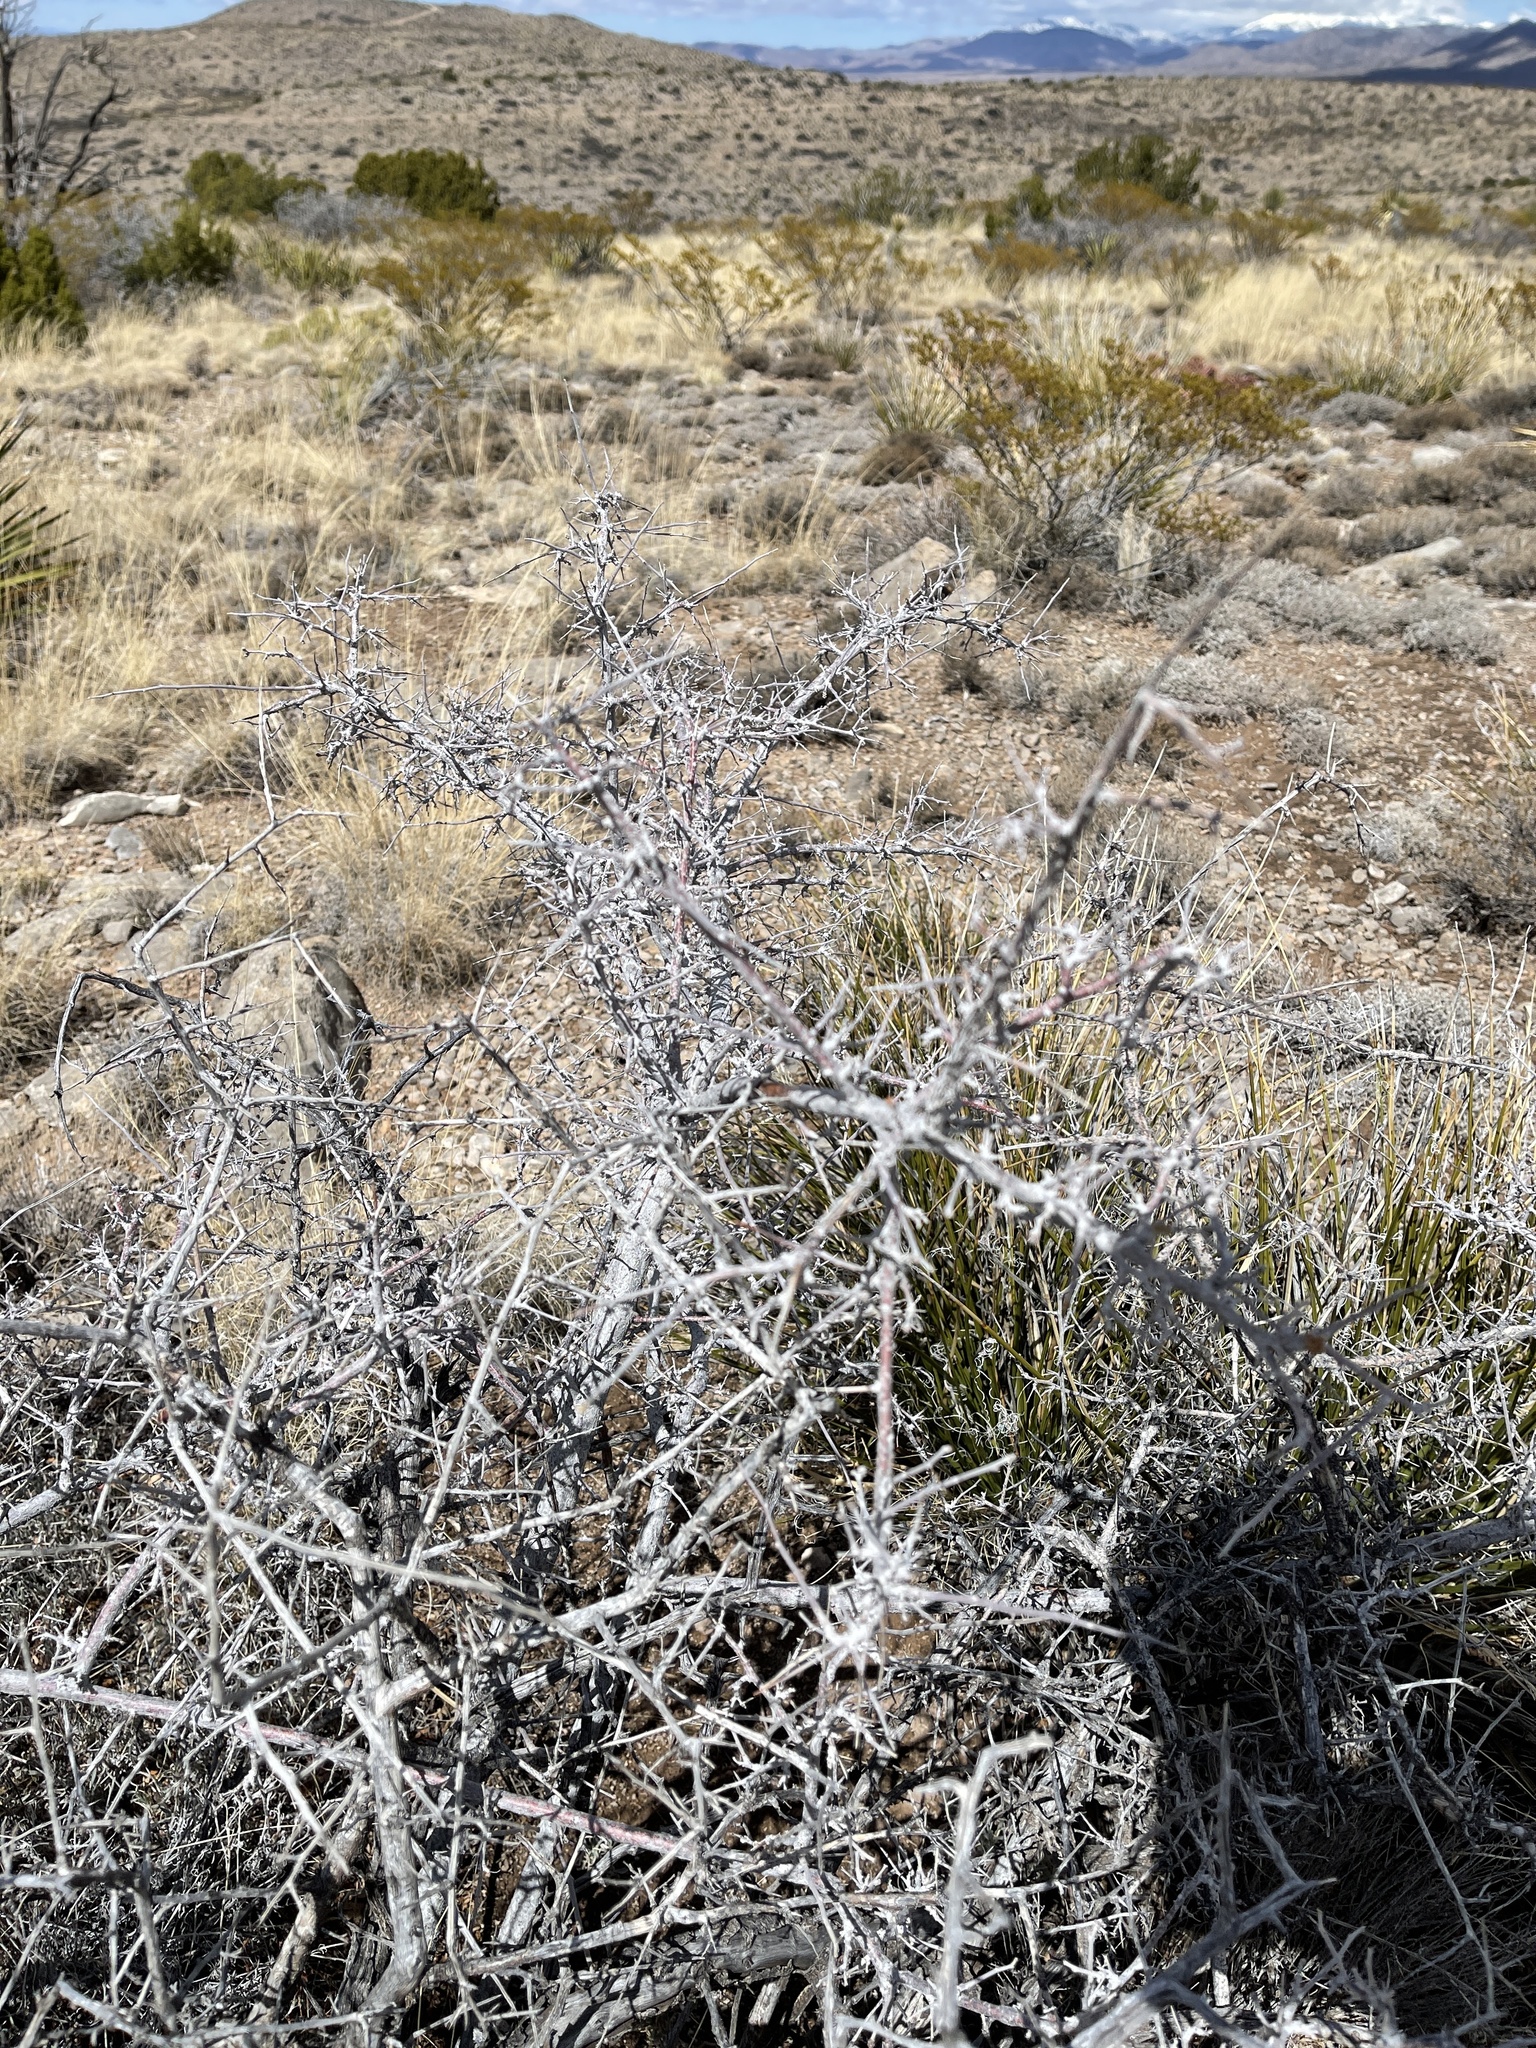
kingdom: Plantae
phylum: Tracheophyta
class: Magnoliopsida
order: Sapindales
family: Anacardiaceae
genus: Rhus
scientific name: Rhus microphylla
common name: Desert sumac
